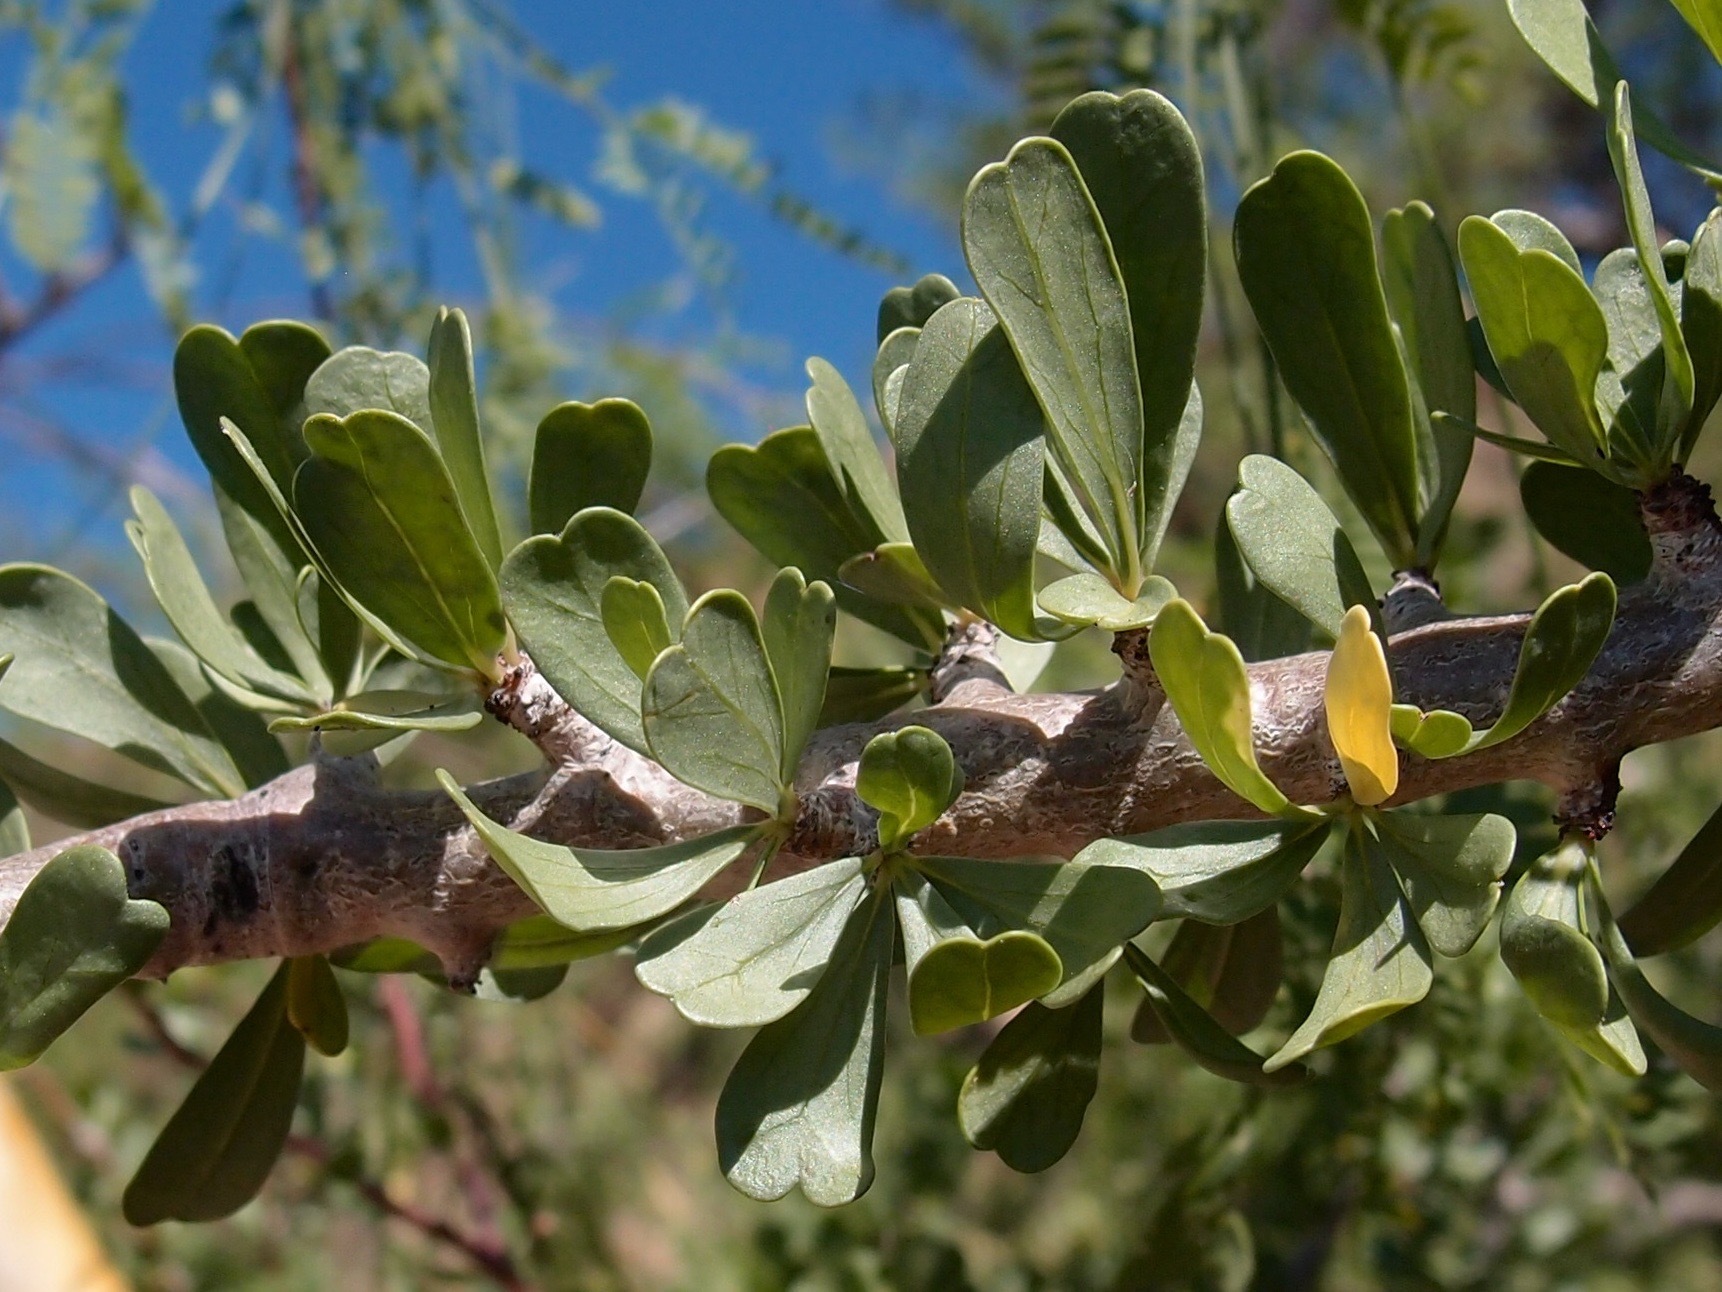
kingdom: Plantae
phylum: Tracheophyta
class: Magnoliopsida
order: Malpighiales
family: Euphorbiaceae
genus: Jatropha
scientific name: Jatropha cuneata
